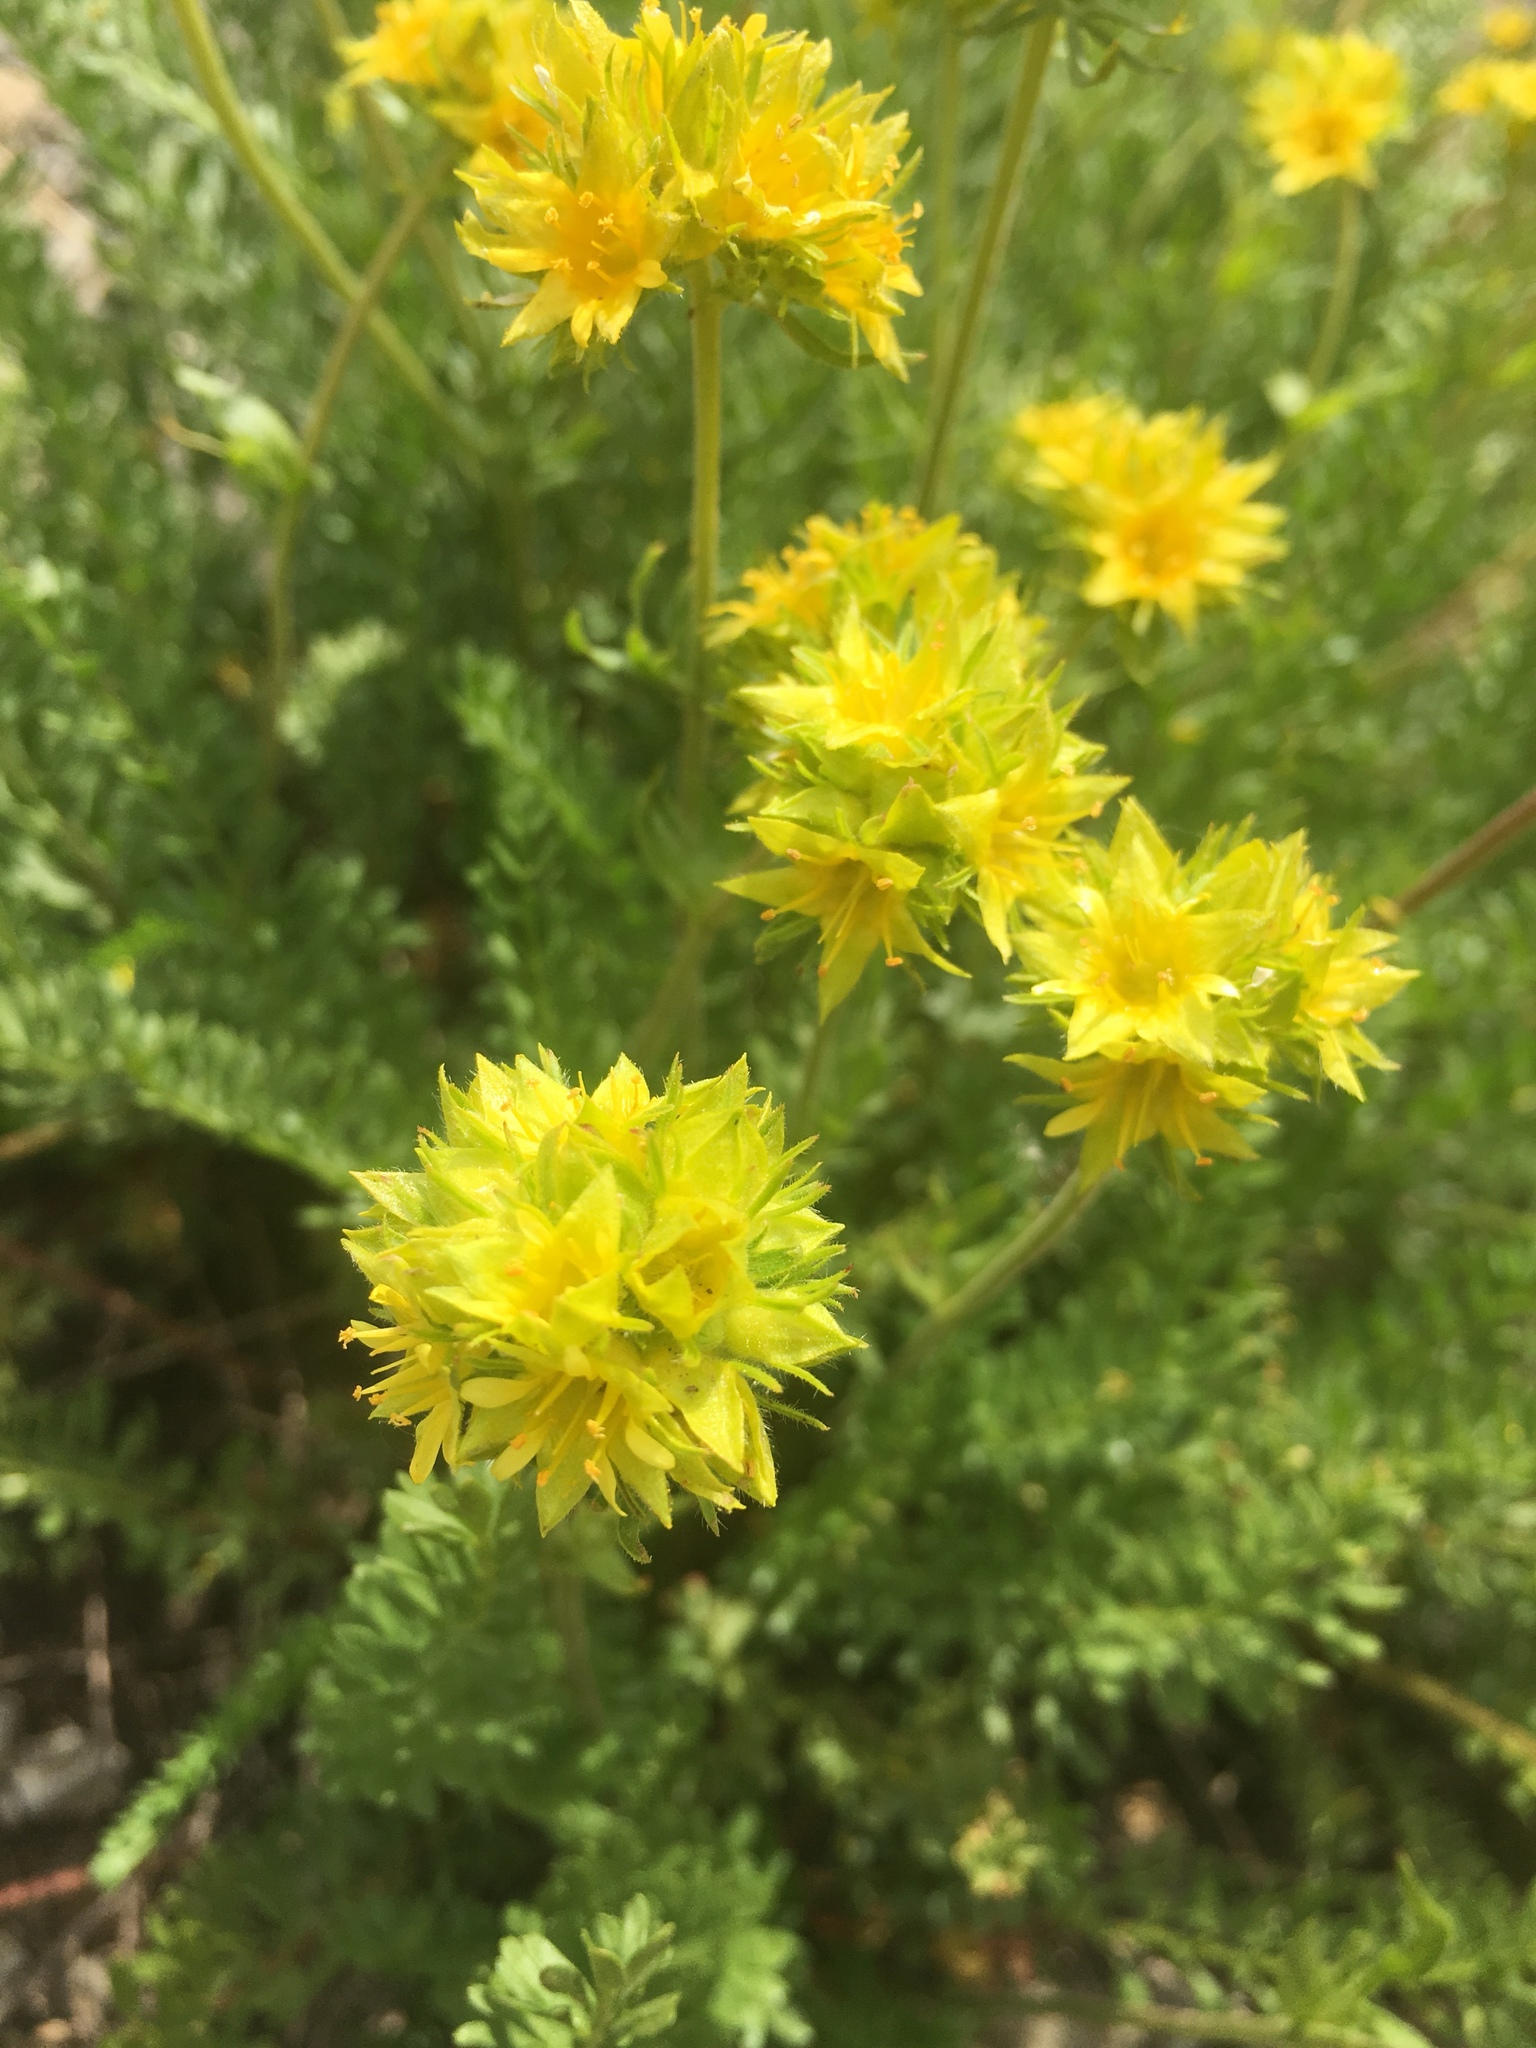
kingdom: Plantae
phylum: Tracheophyta
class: Magnoliopsida
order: Rosales
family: Rosaceae
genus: Potentilla
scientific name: Potentilla gordonii
